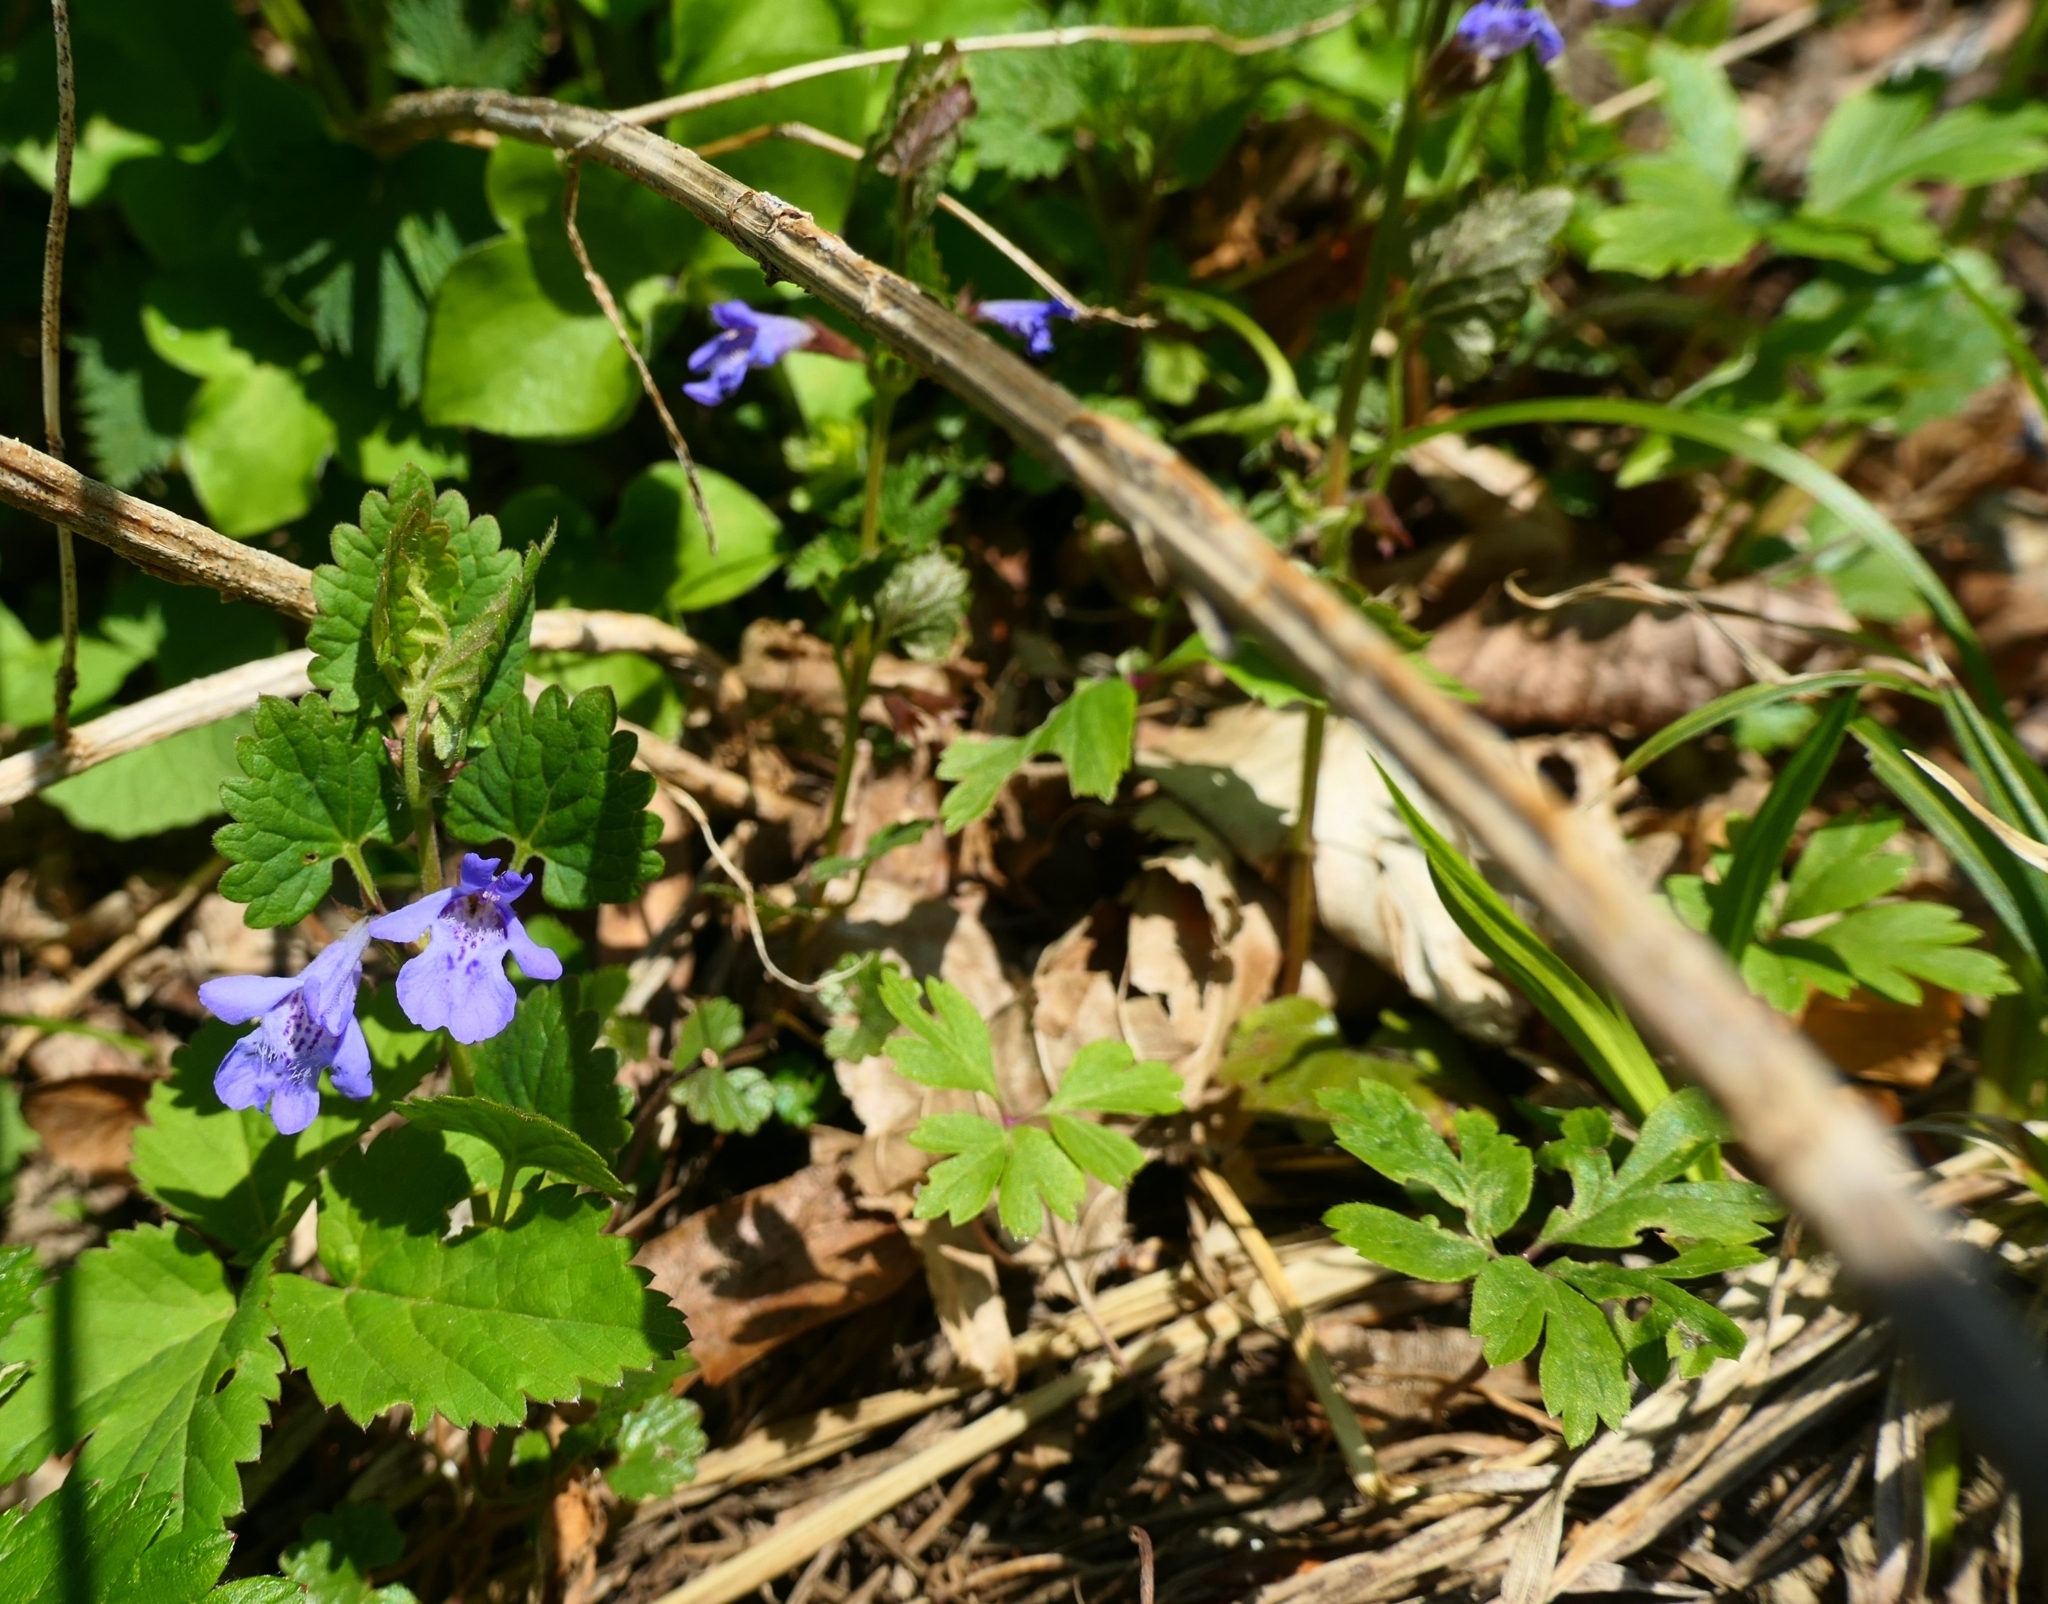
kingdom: Plantae
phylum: Tracheophyta
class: Magnoliopsida
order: Lamiales
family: Lamiaceae
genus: Glechoma
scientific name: Glechoma hederacea
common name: Ground ivy
